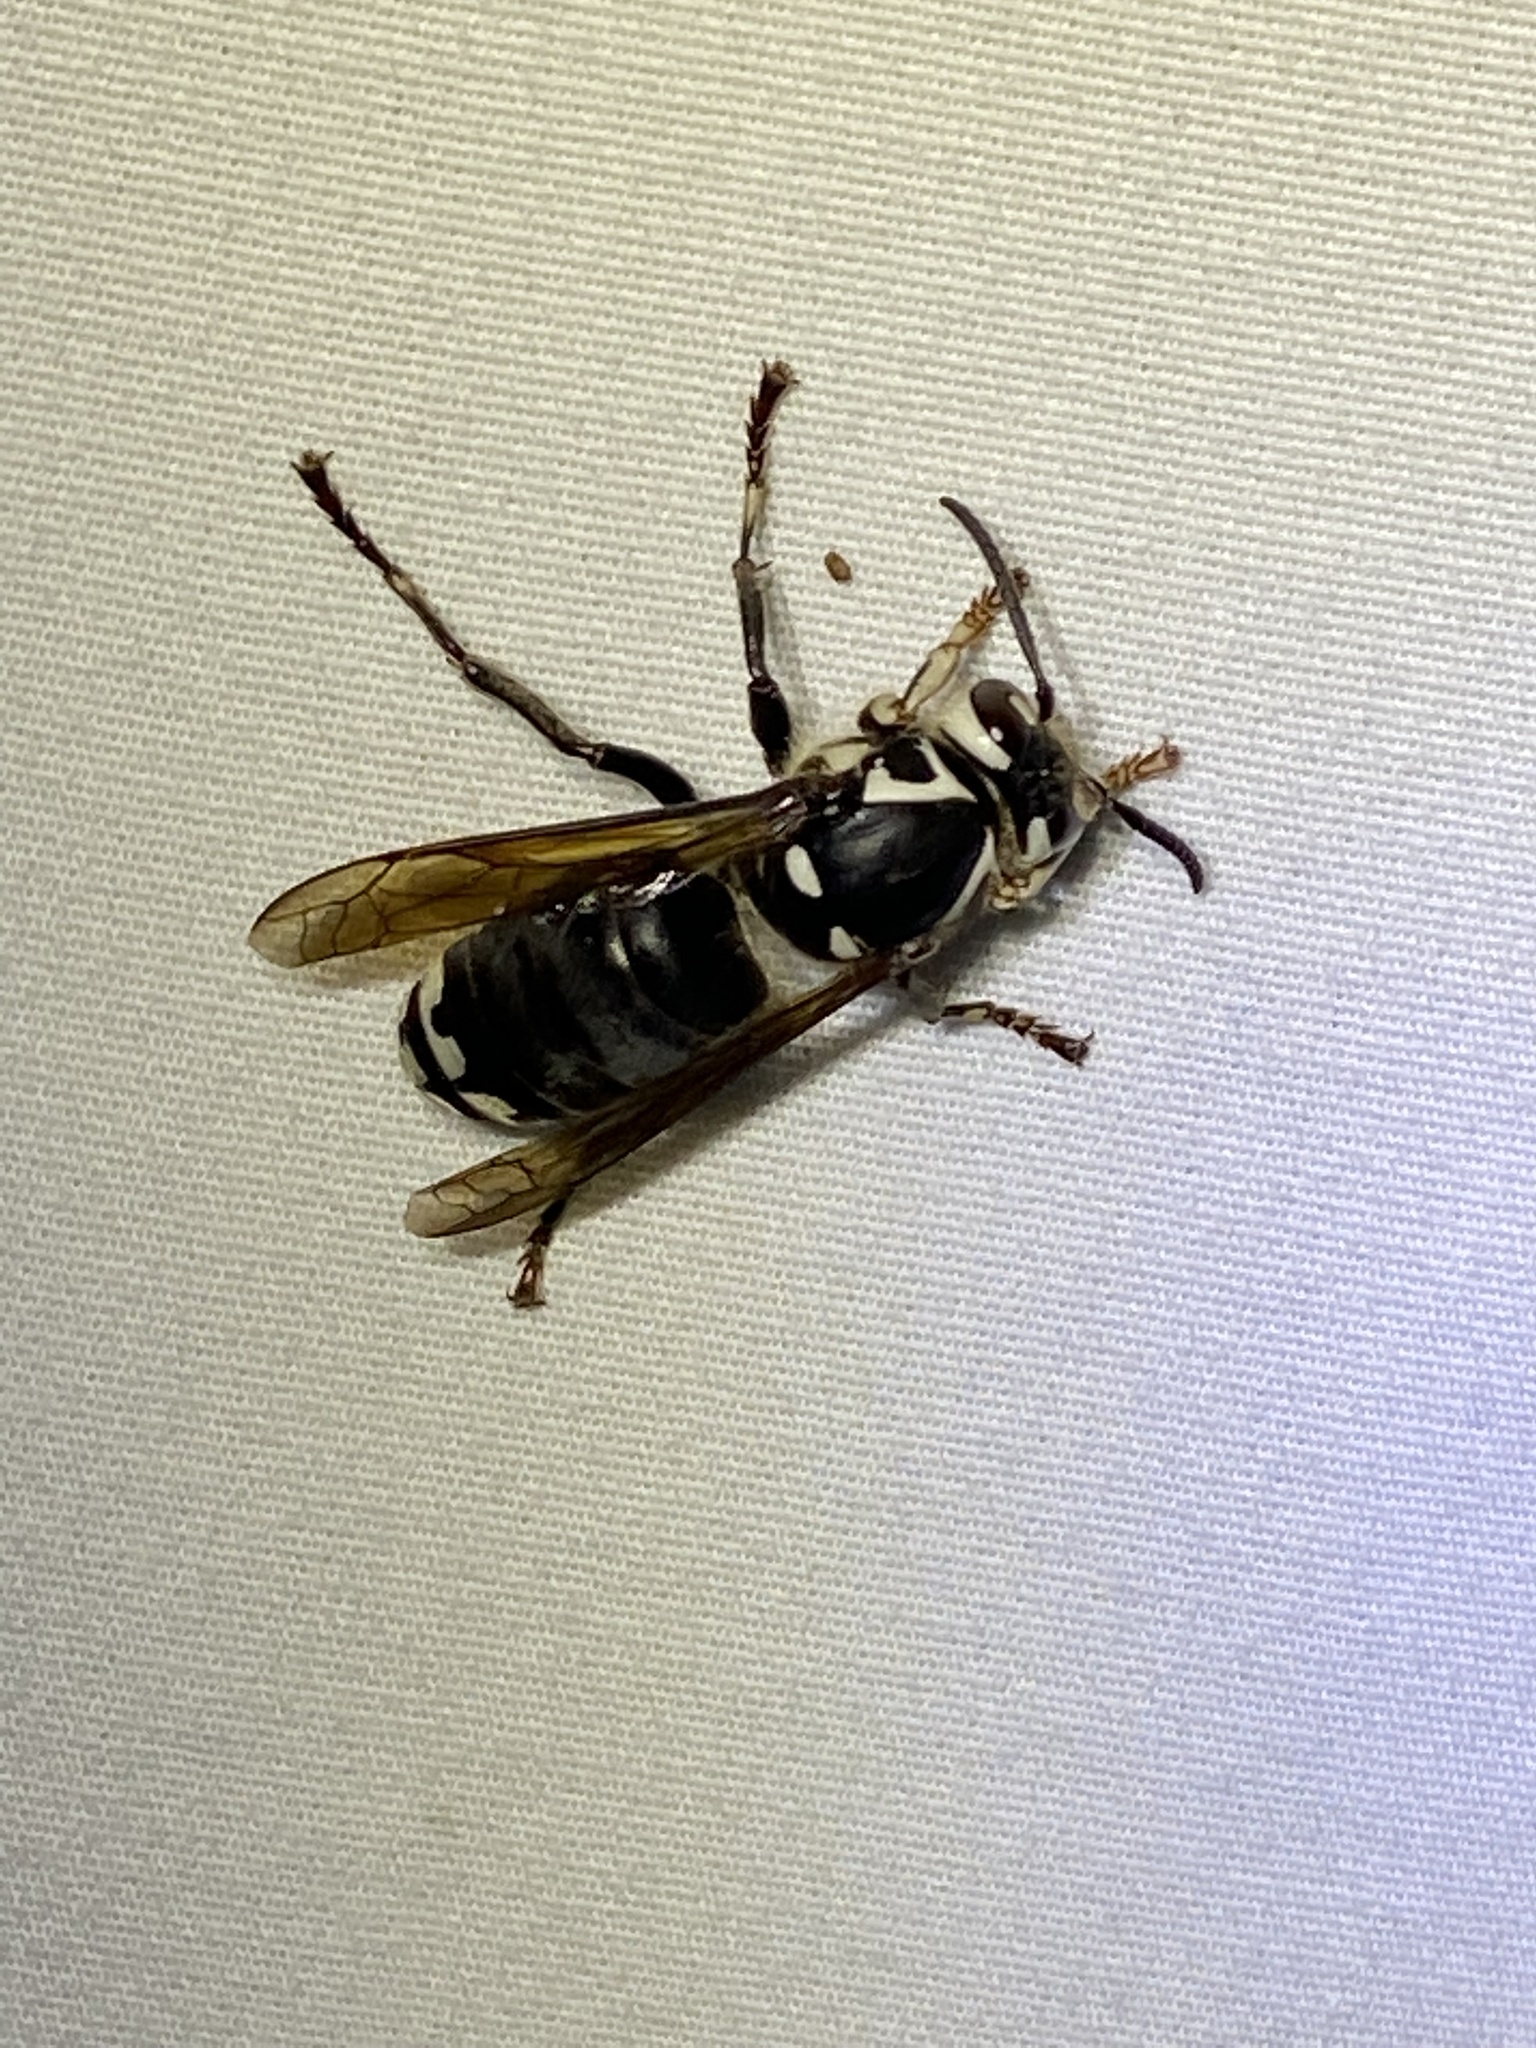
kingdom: Animalia
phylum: Arthropoda
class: Insecta
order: Hymenoptera
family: Vespidae
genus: Dolichovespula
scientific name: Dolichovespula maculata
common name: Bald-faced hornet
